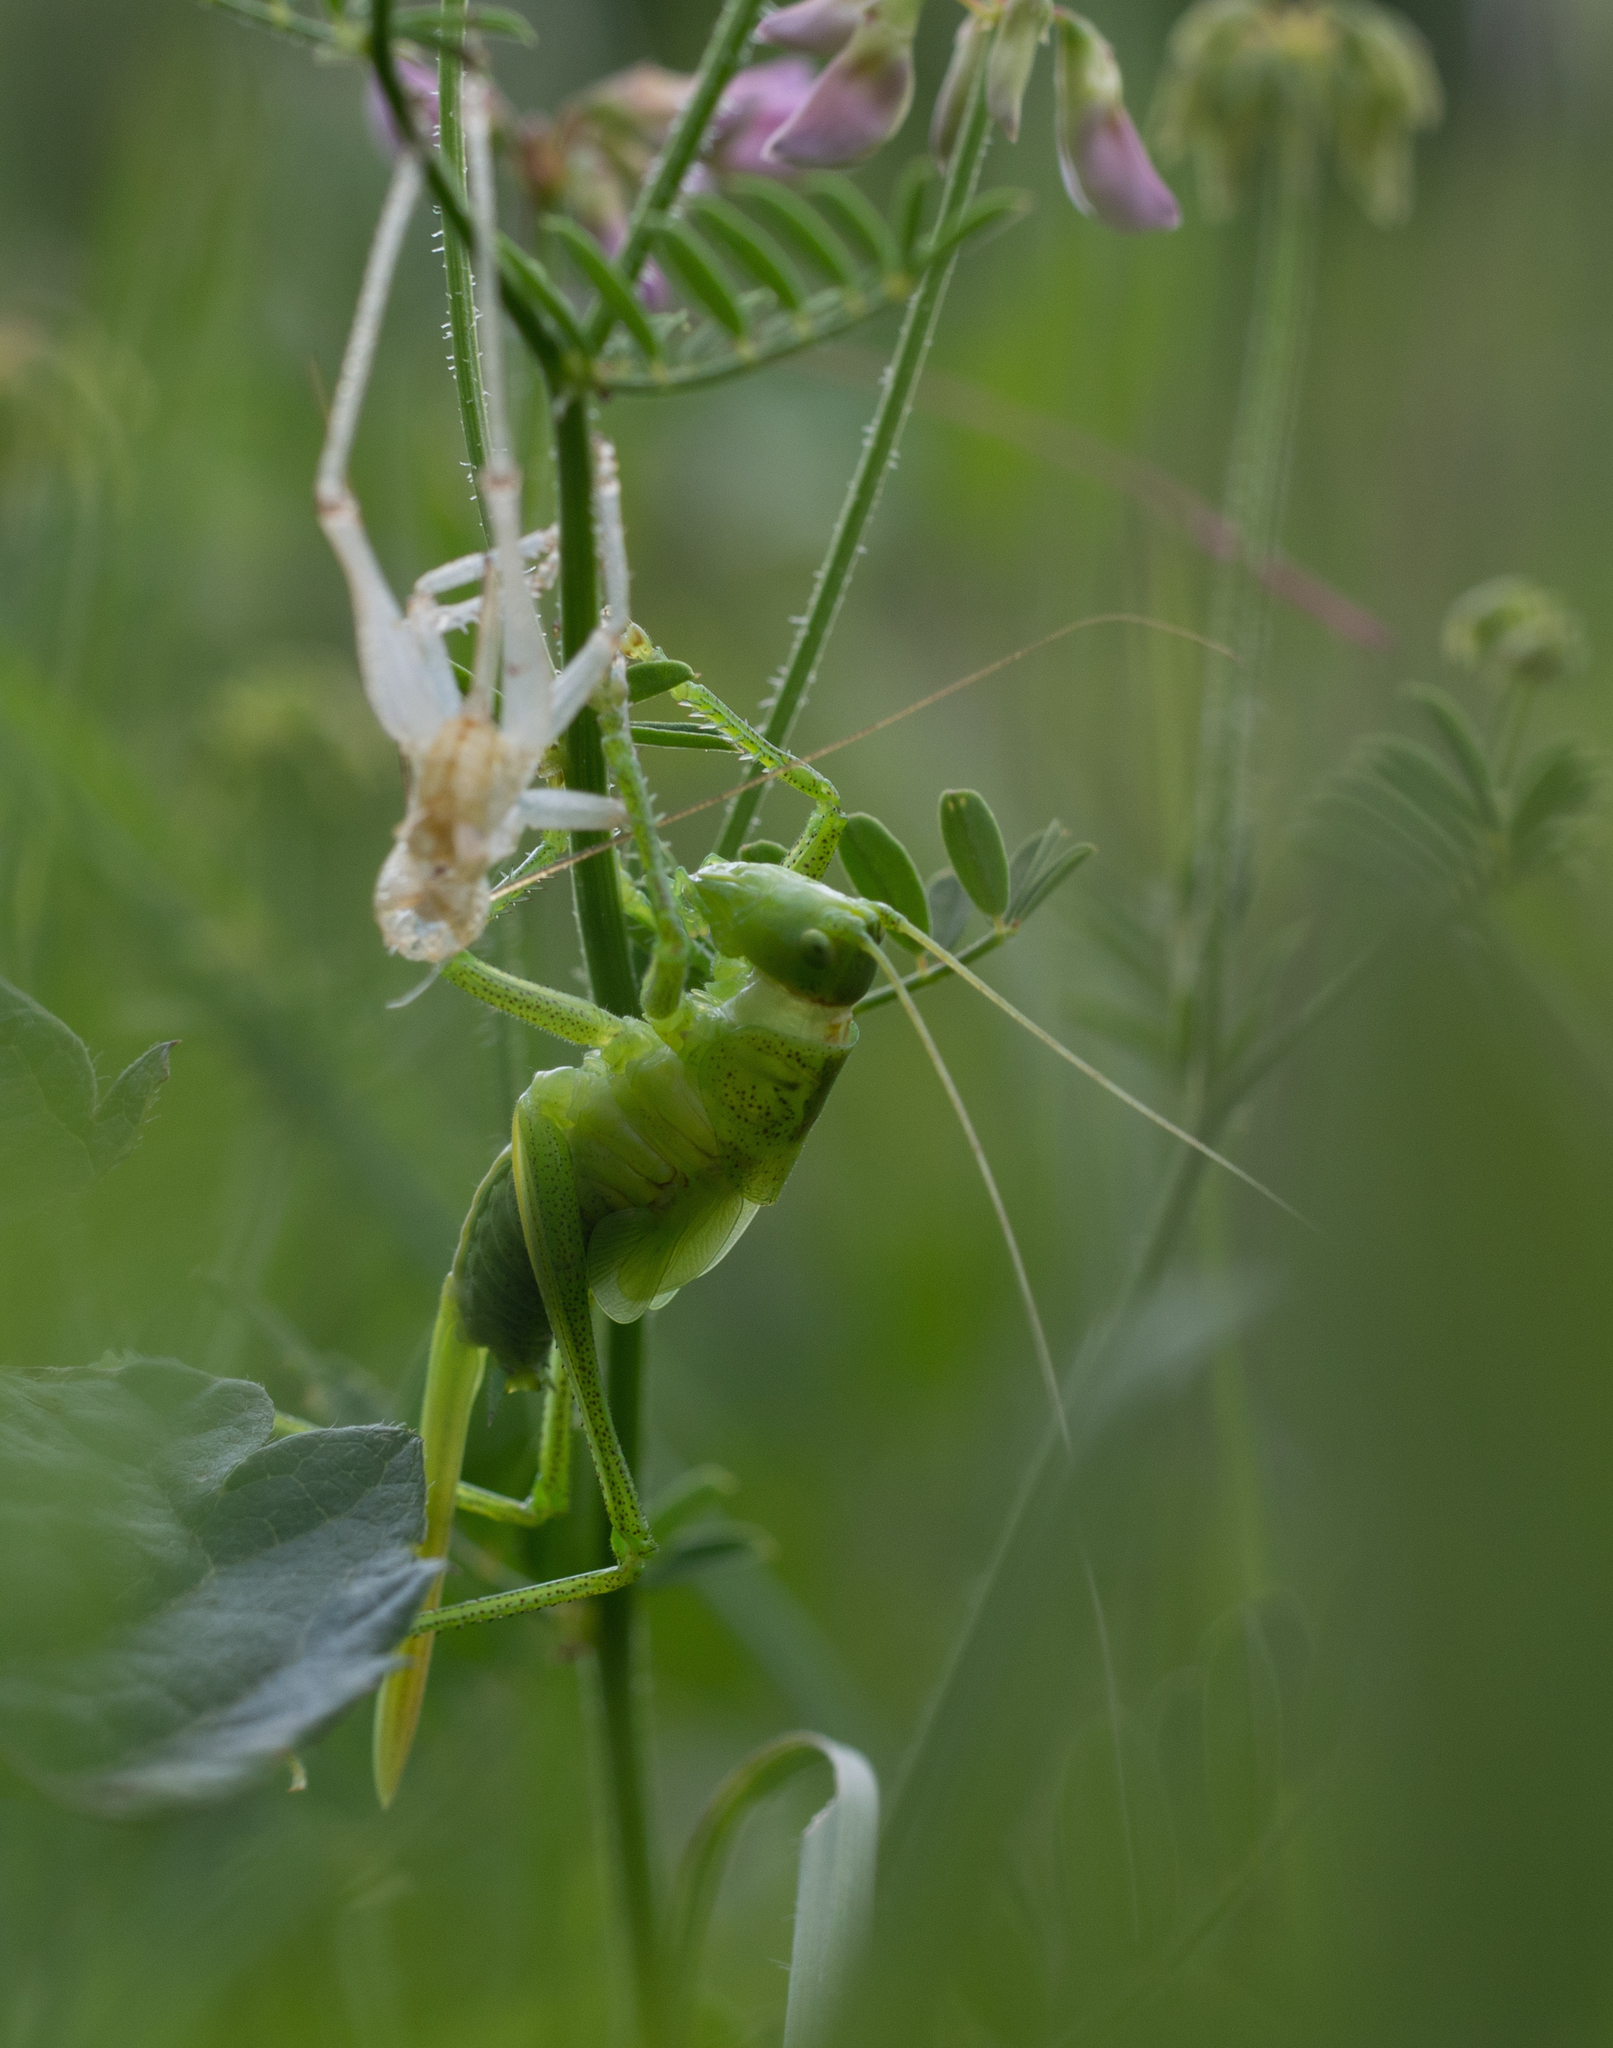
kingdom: Animalia
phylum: Arthropoda
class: Insecta
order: Orthoptera
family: Tettigoniidae
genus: Tettigonia
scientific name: Tettigonia cantans
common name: Upland green bush-cricket
